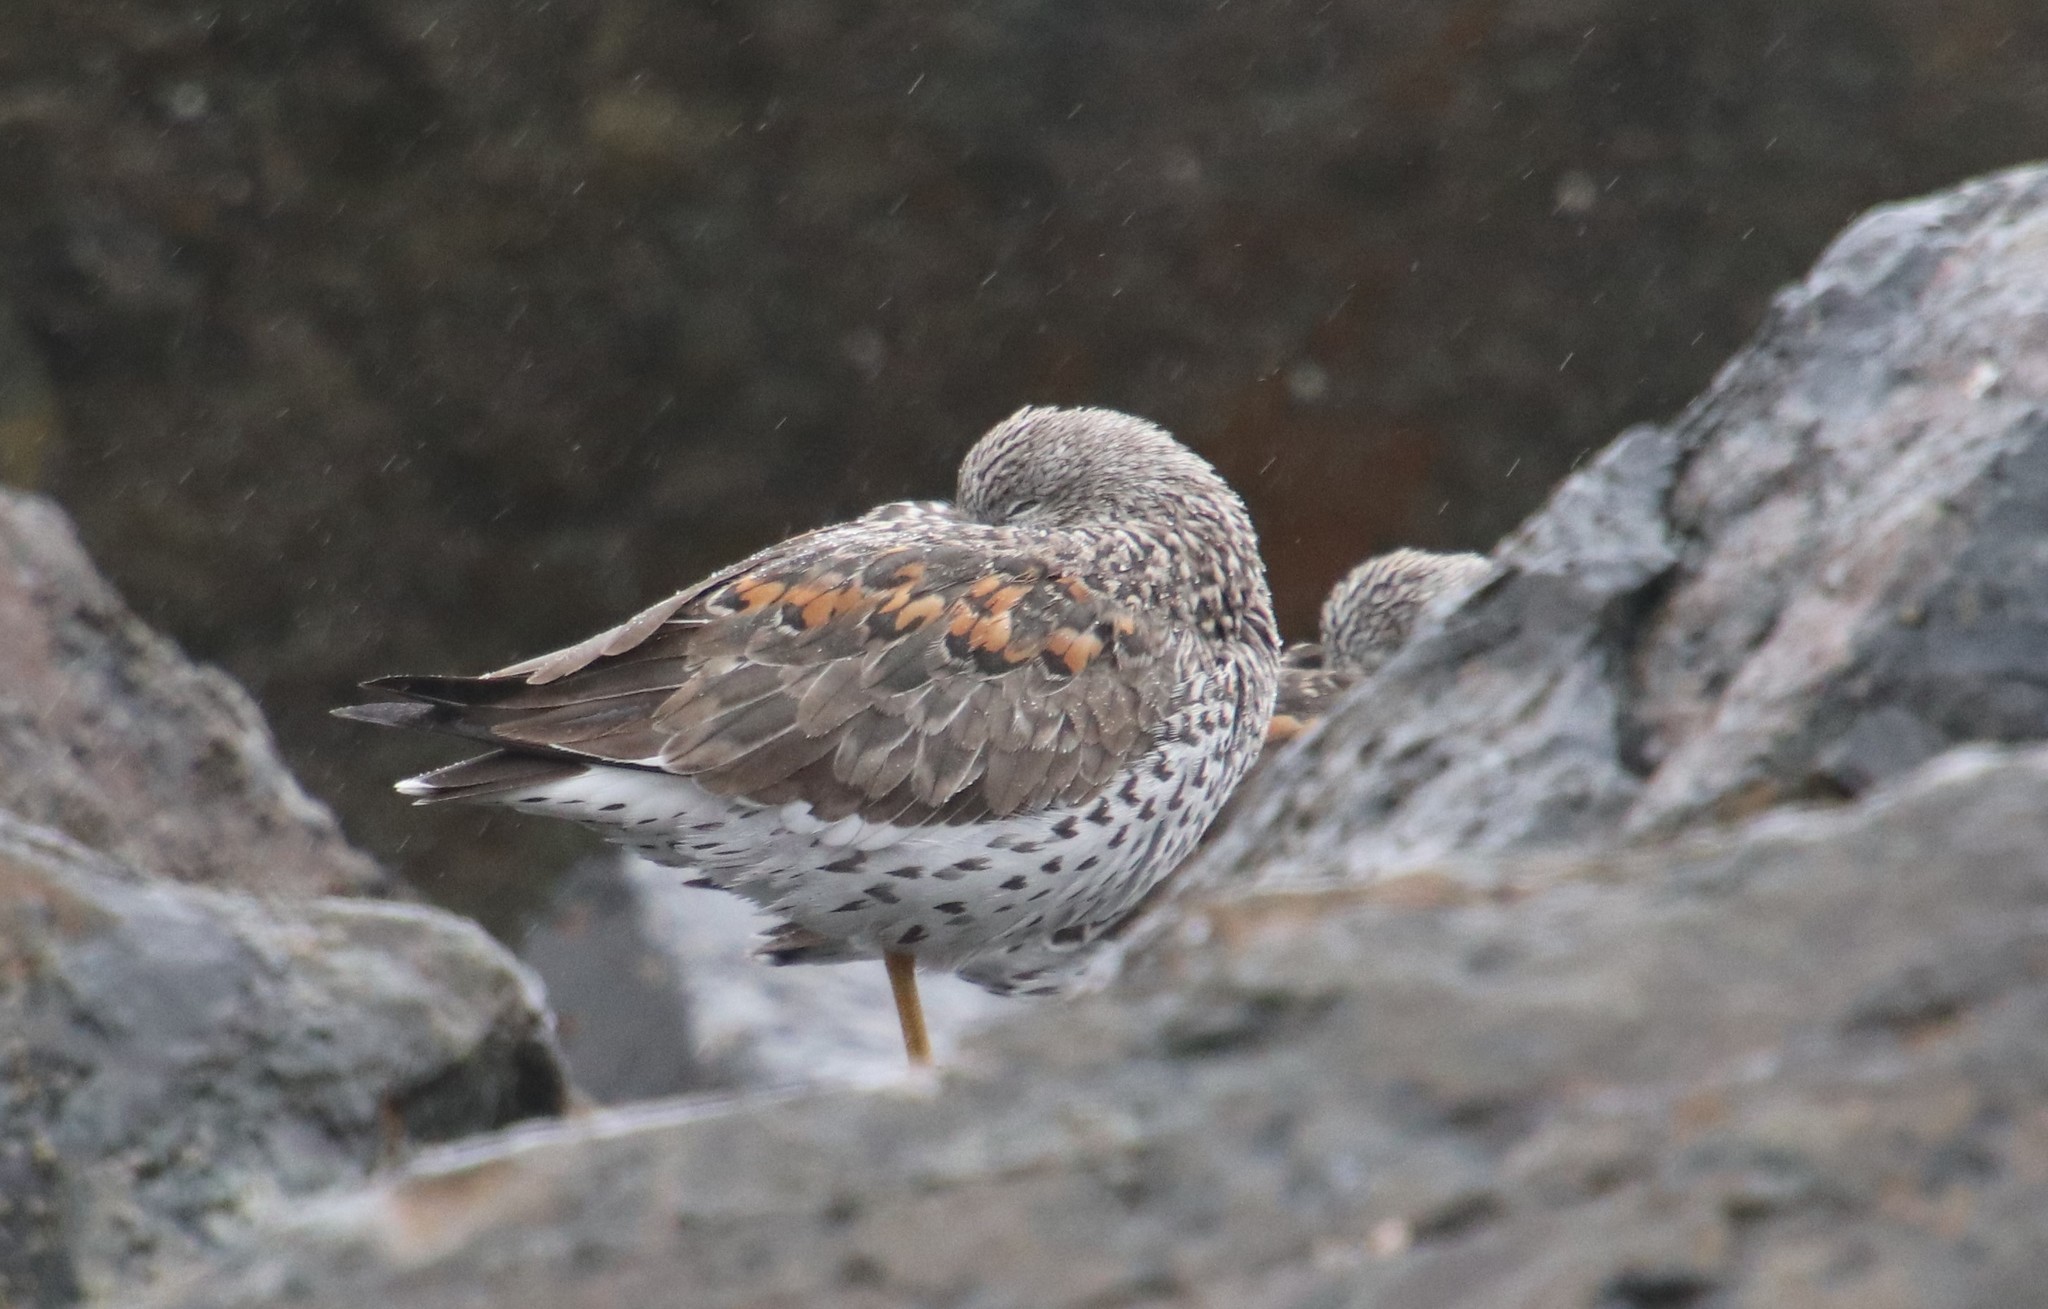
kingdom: Animalia
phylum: Chordata
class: Aves
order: Charadriiformes
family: Scolopacidae
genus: Calidris
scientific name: Calidris virgata
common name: Surfbird
